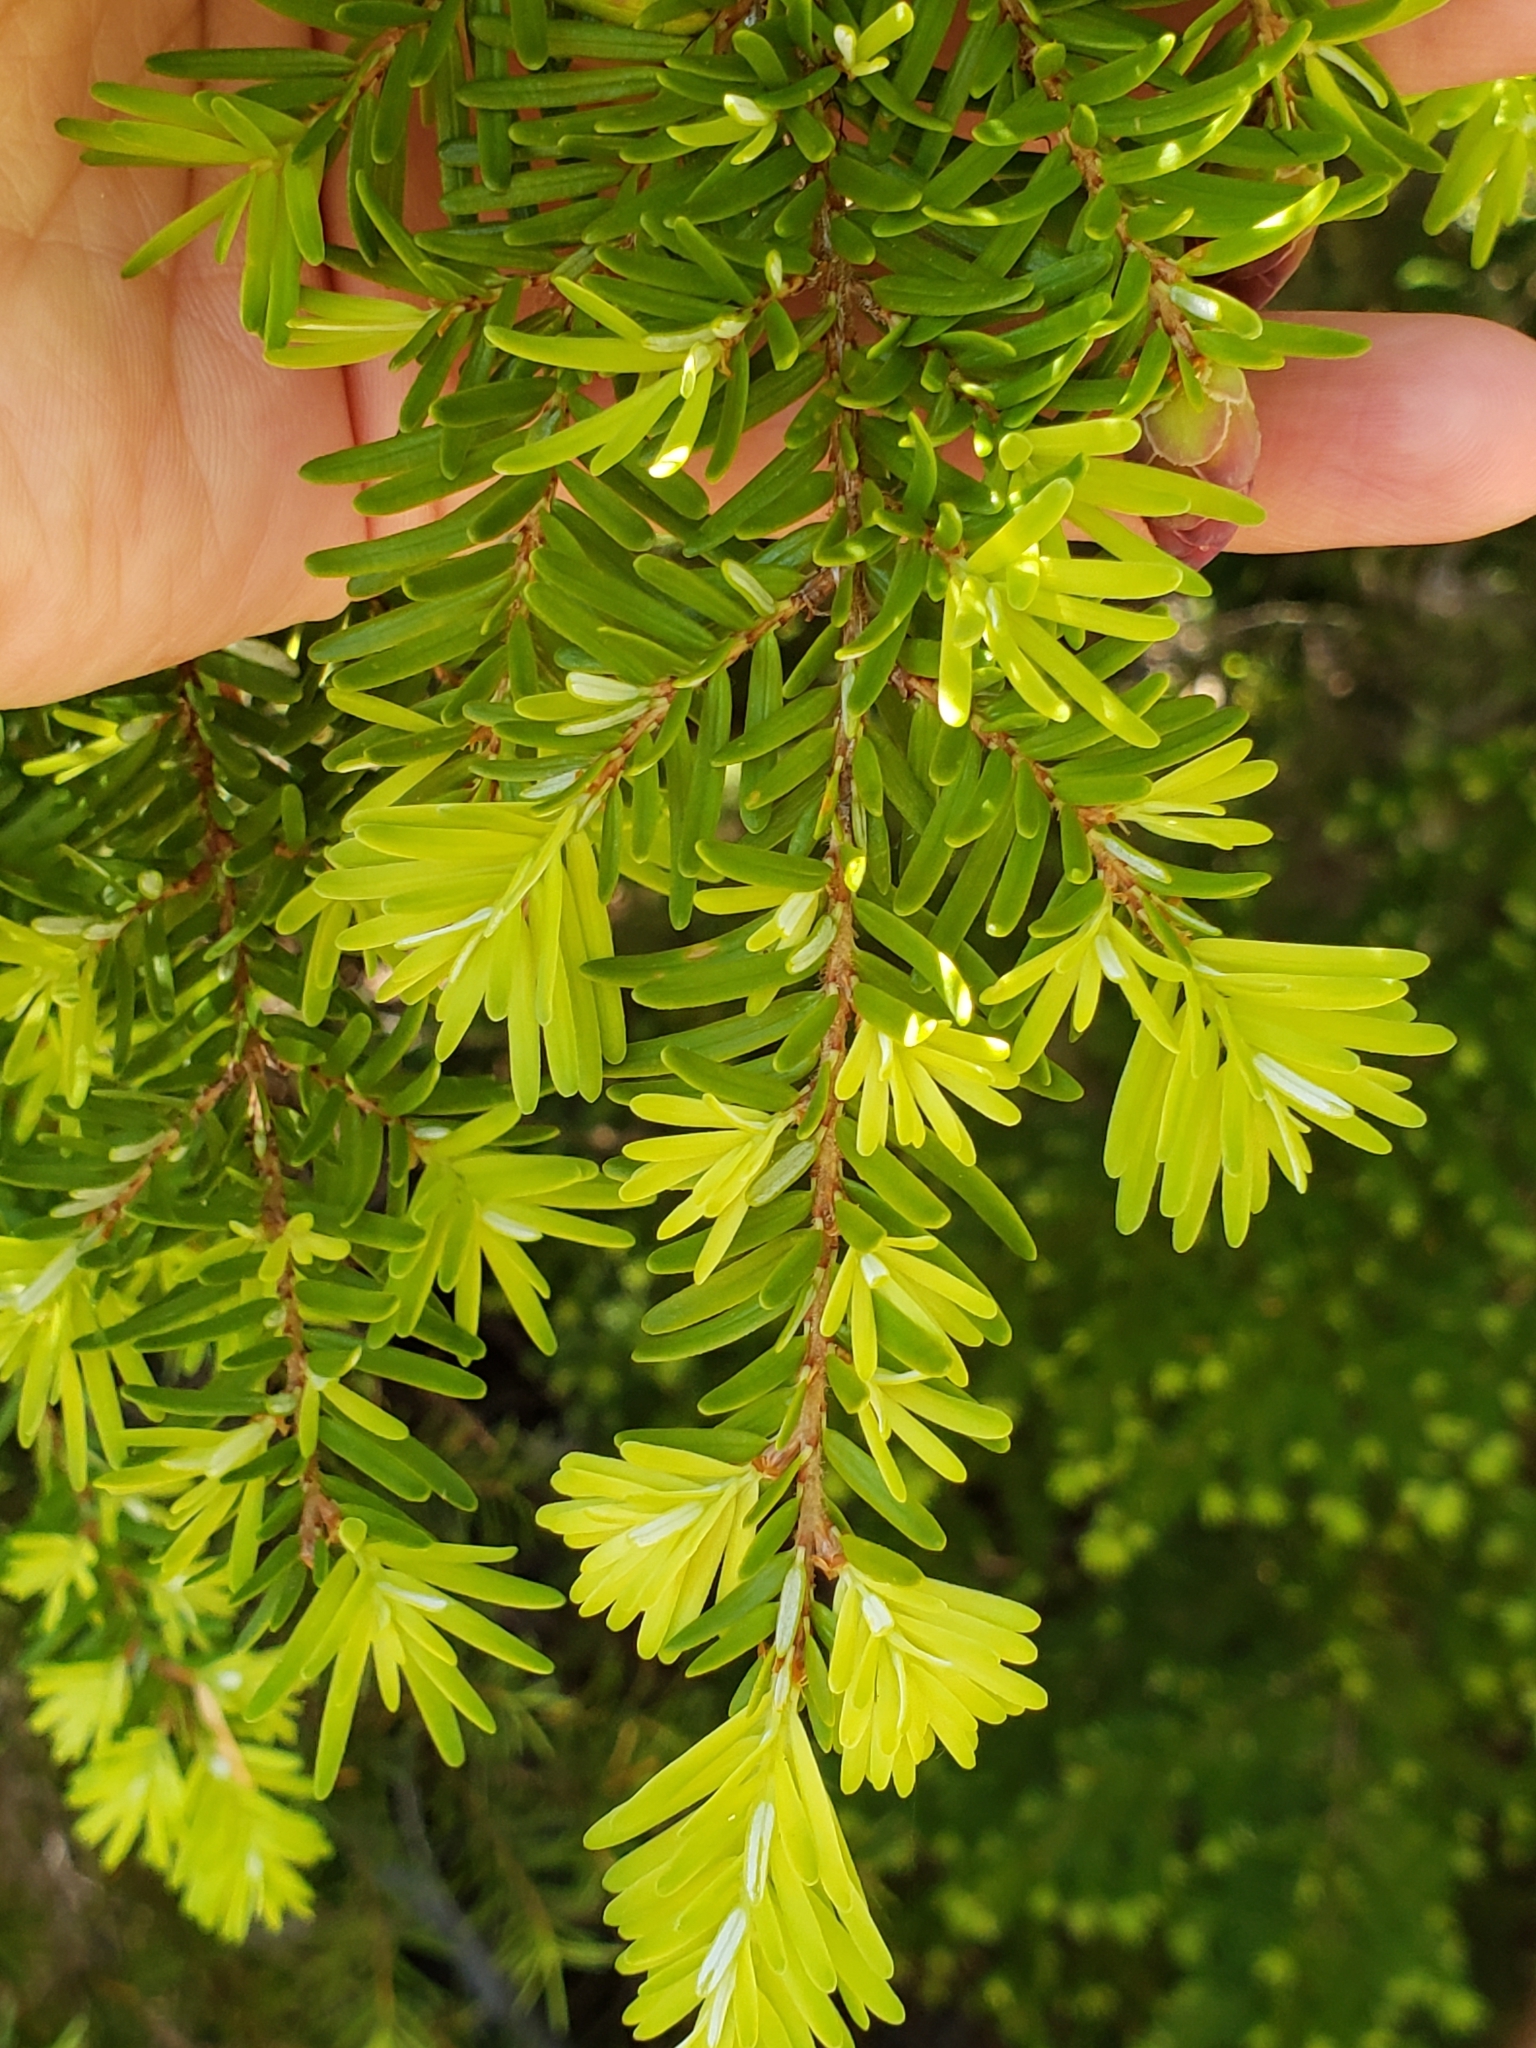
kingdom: Plantae
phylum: Tracheophyta
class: Pinopsida
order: Pinales
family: Pinaceae
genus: Tsuga
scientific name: Tsuga heterophylla
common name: Western hemlock
